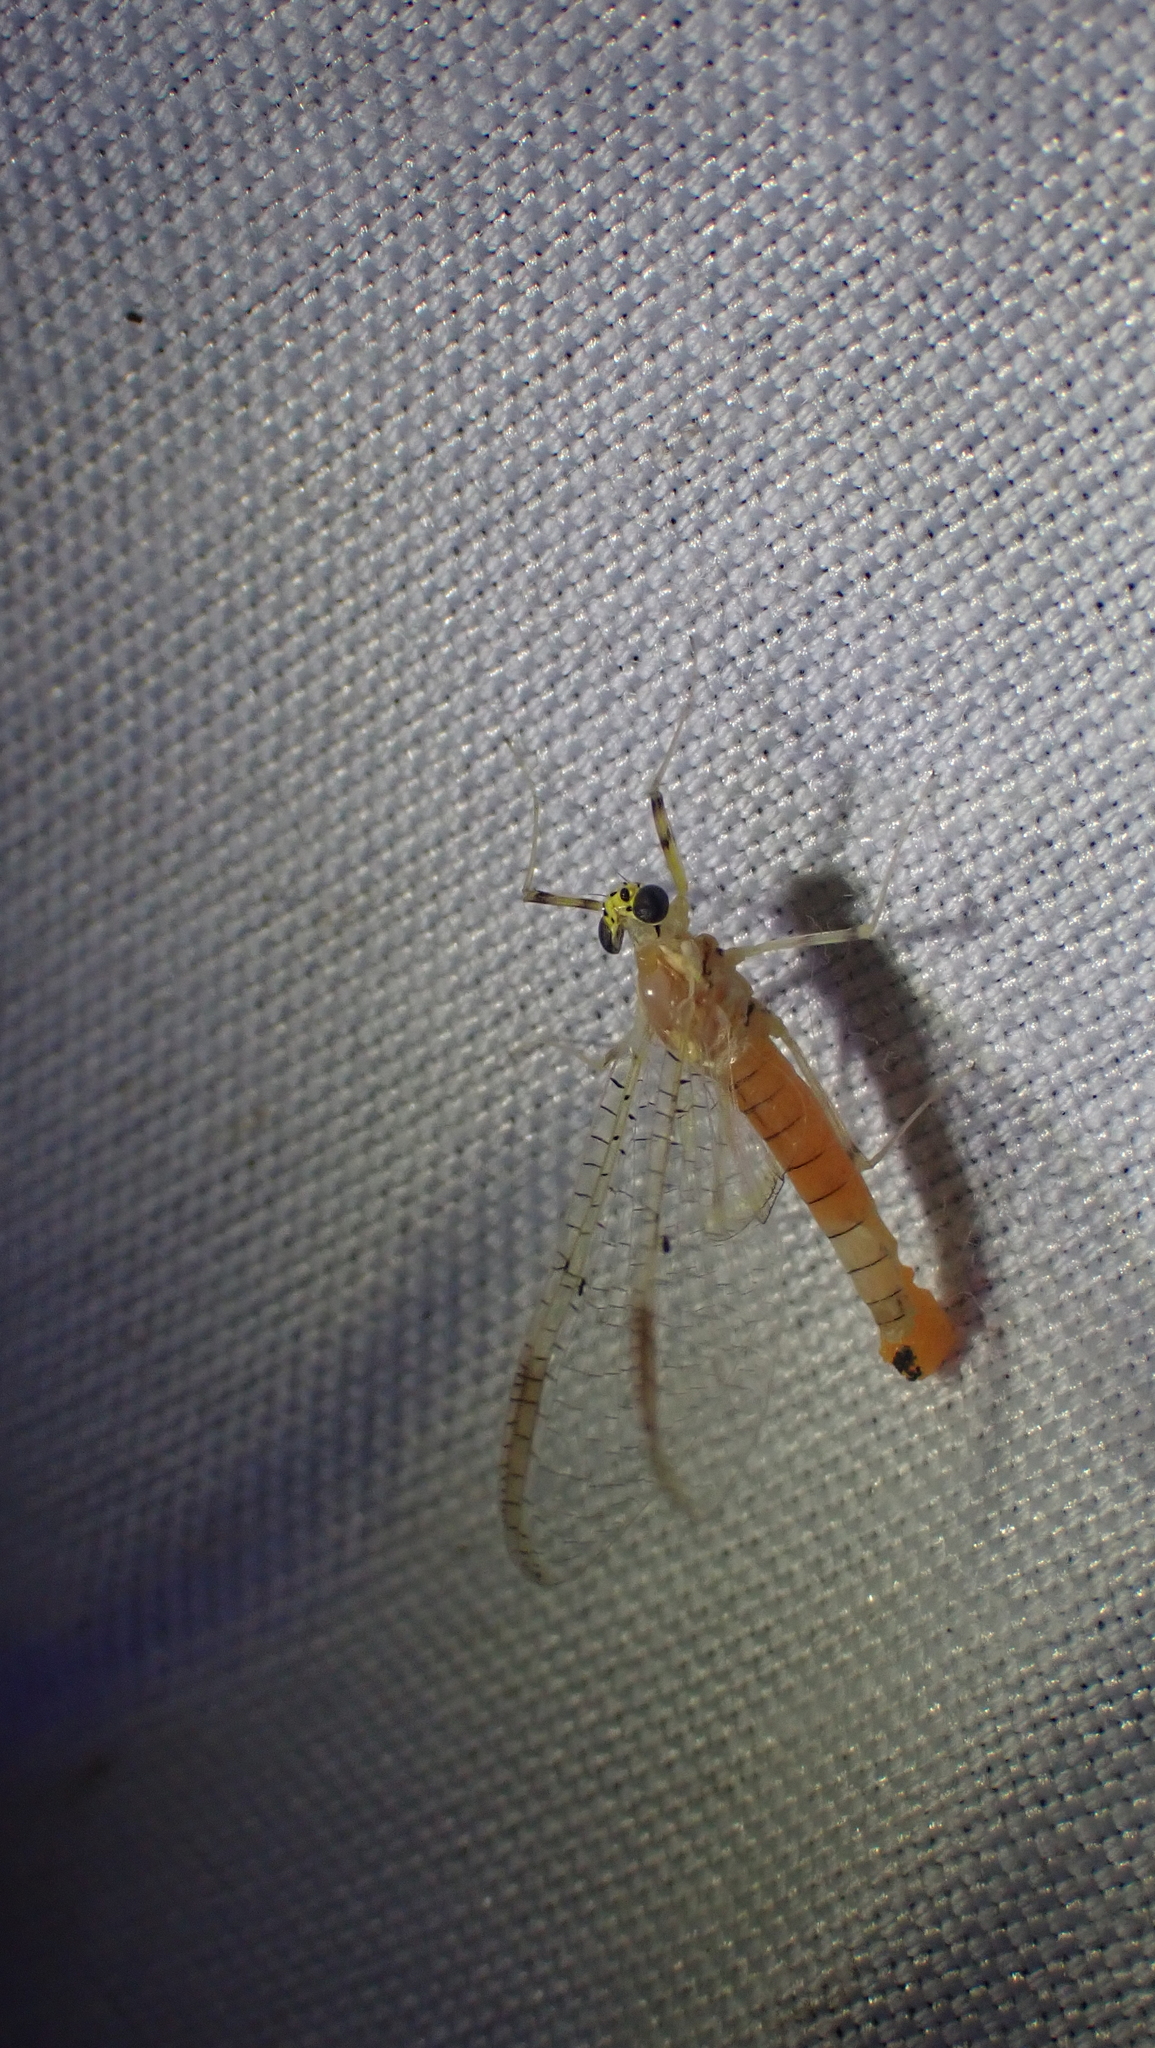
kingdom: Animalia
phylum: Arthropoda
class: Insecta
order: Ephemeroptera
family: Heptageniidae
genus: Stenacron
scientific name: Stenacron interpunctatum
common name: Orange cahill
